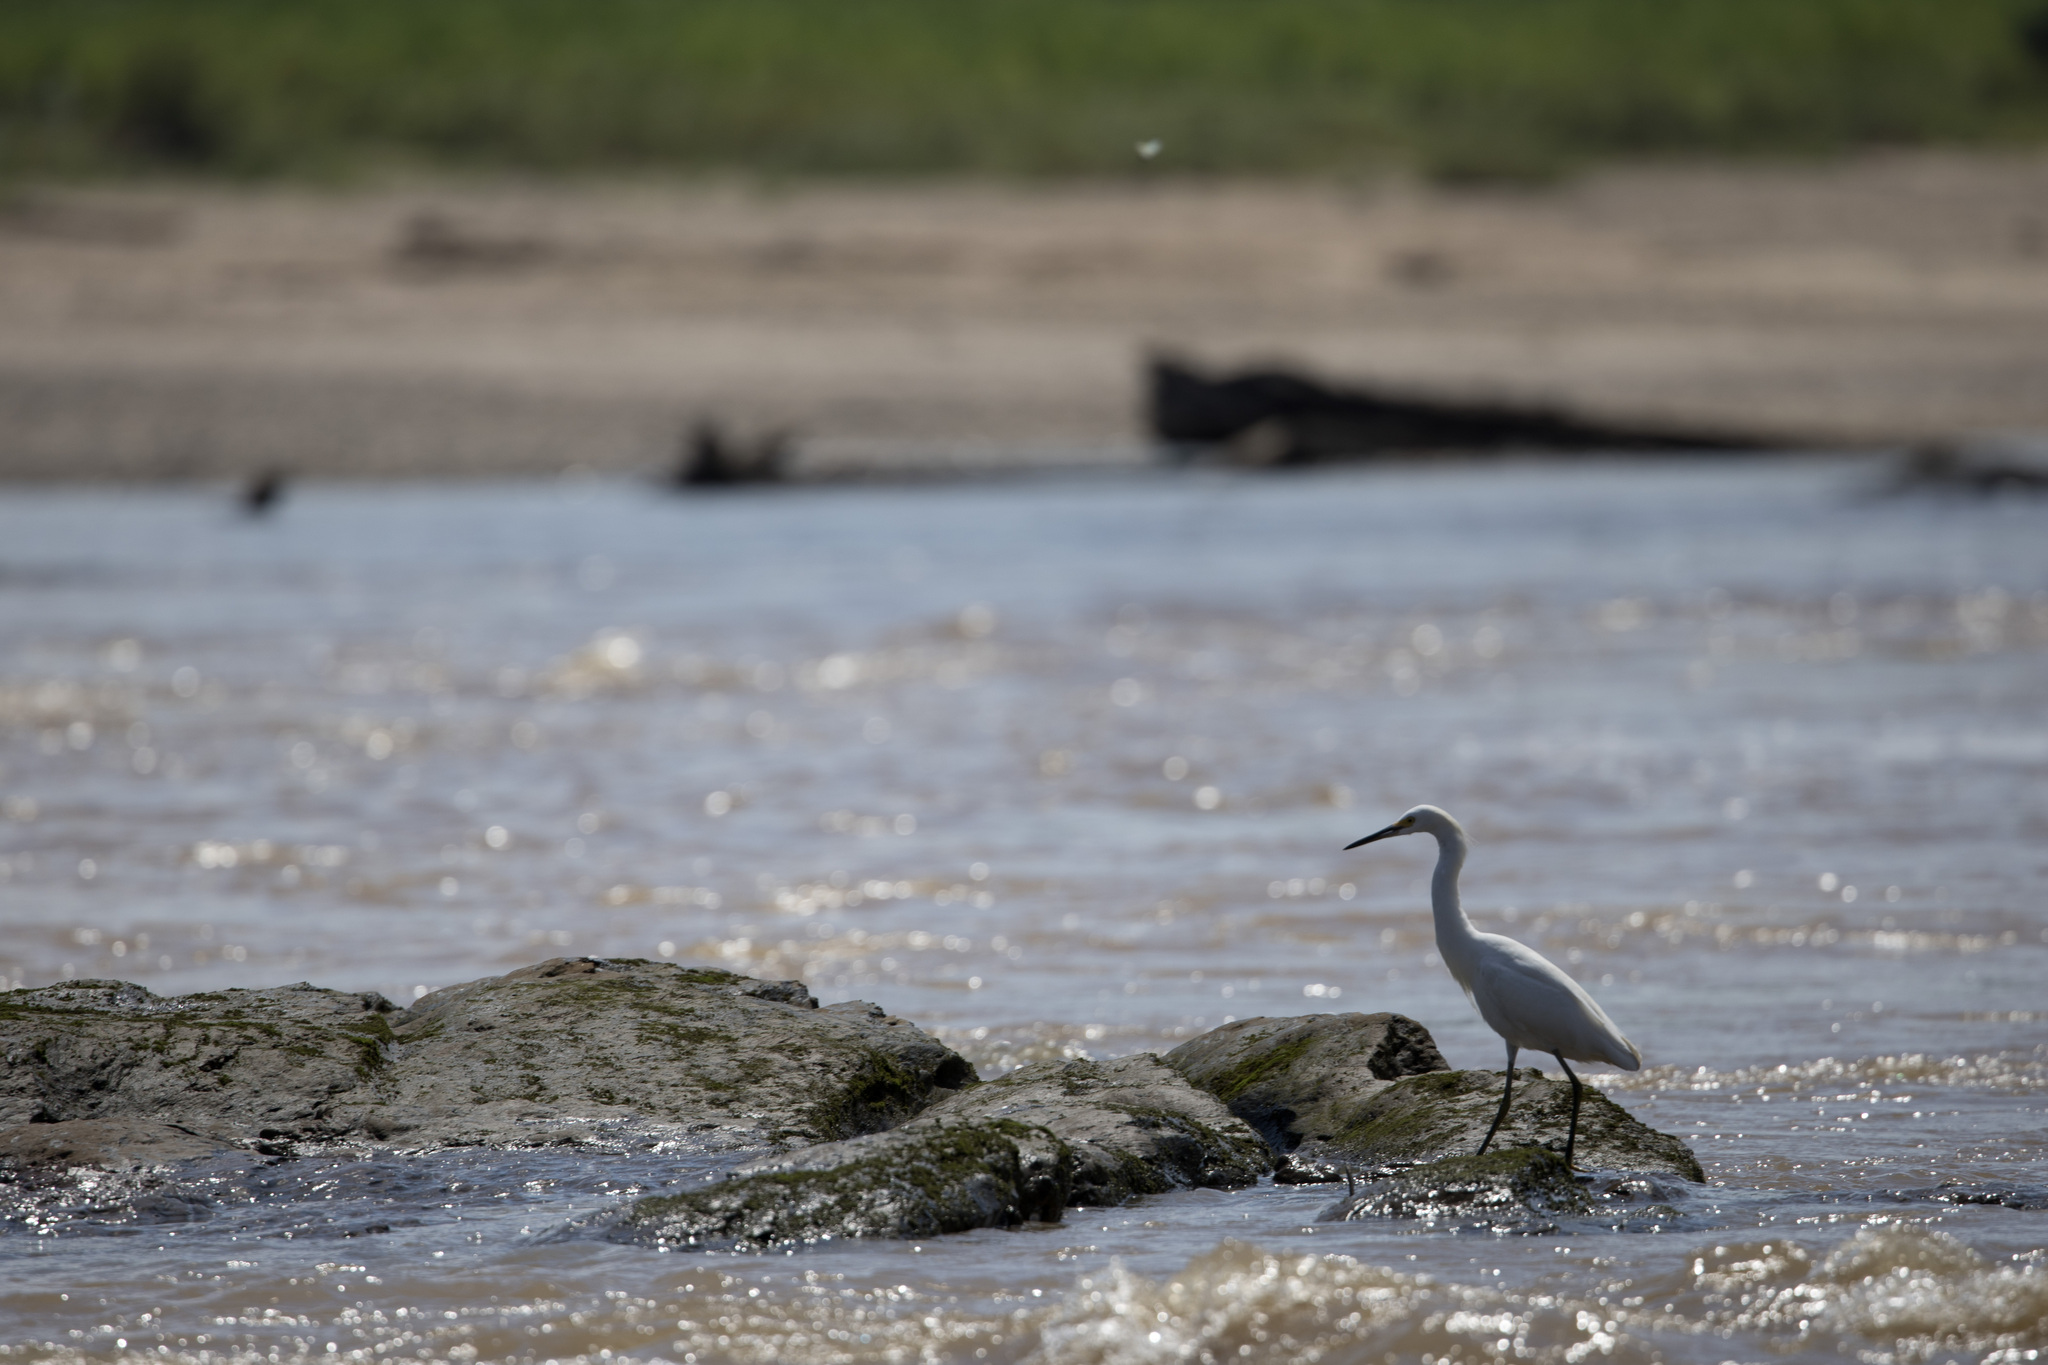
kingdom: Animalia
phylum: Chordata
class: Aves
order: Pelecaniformes
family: Ardeidae
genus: Egretta
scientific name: Egretta thula
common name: Snowy egret
